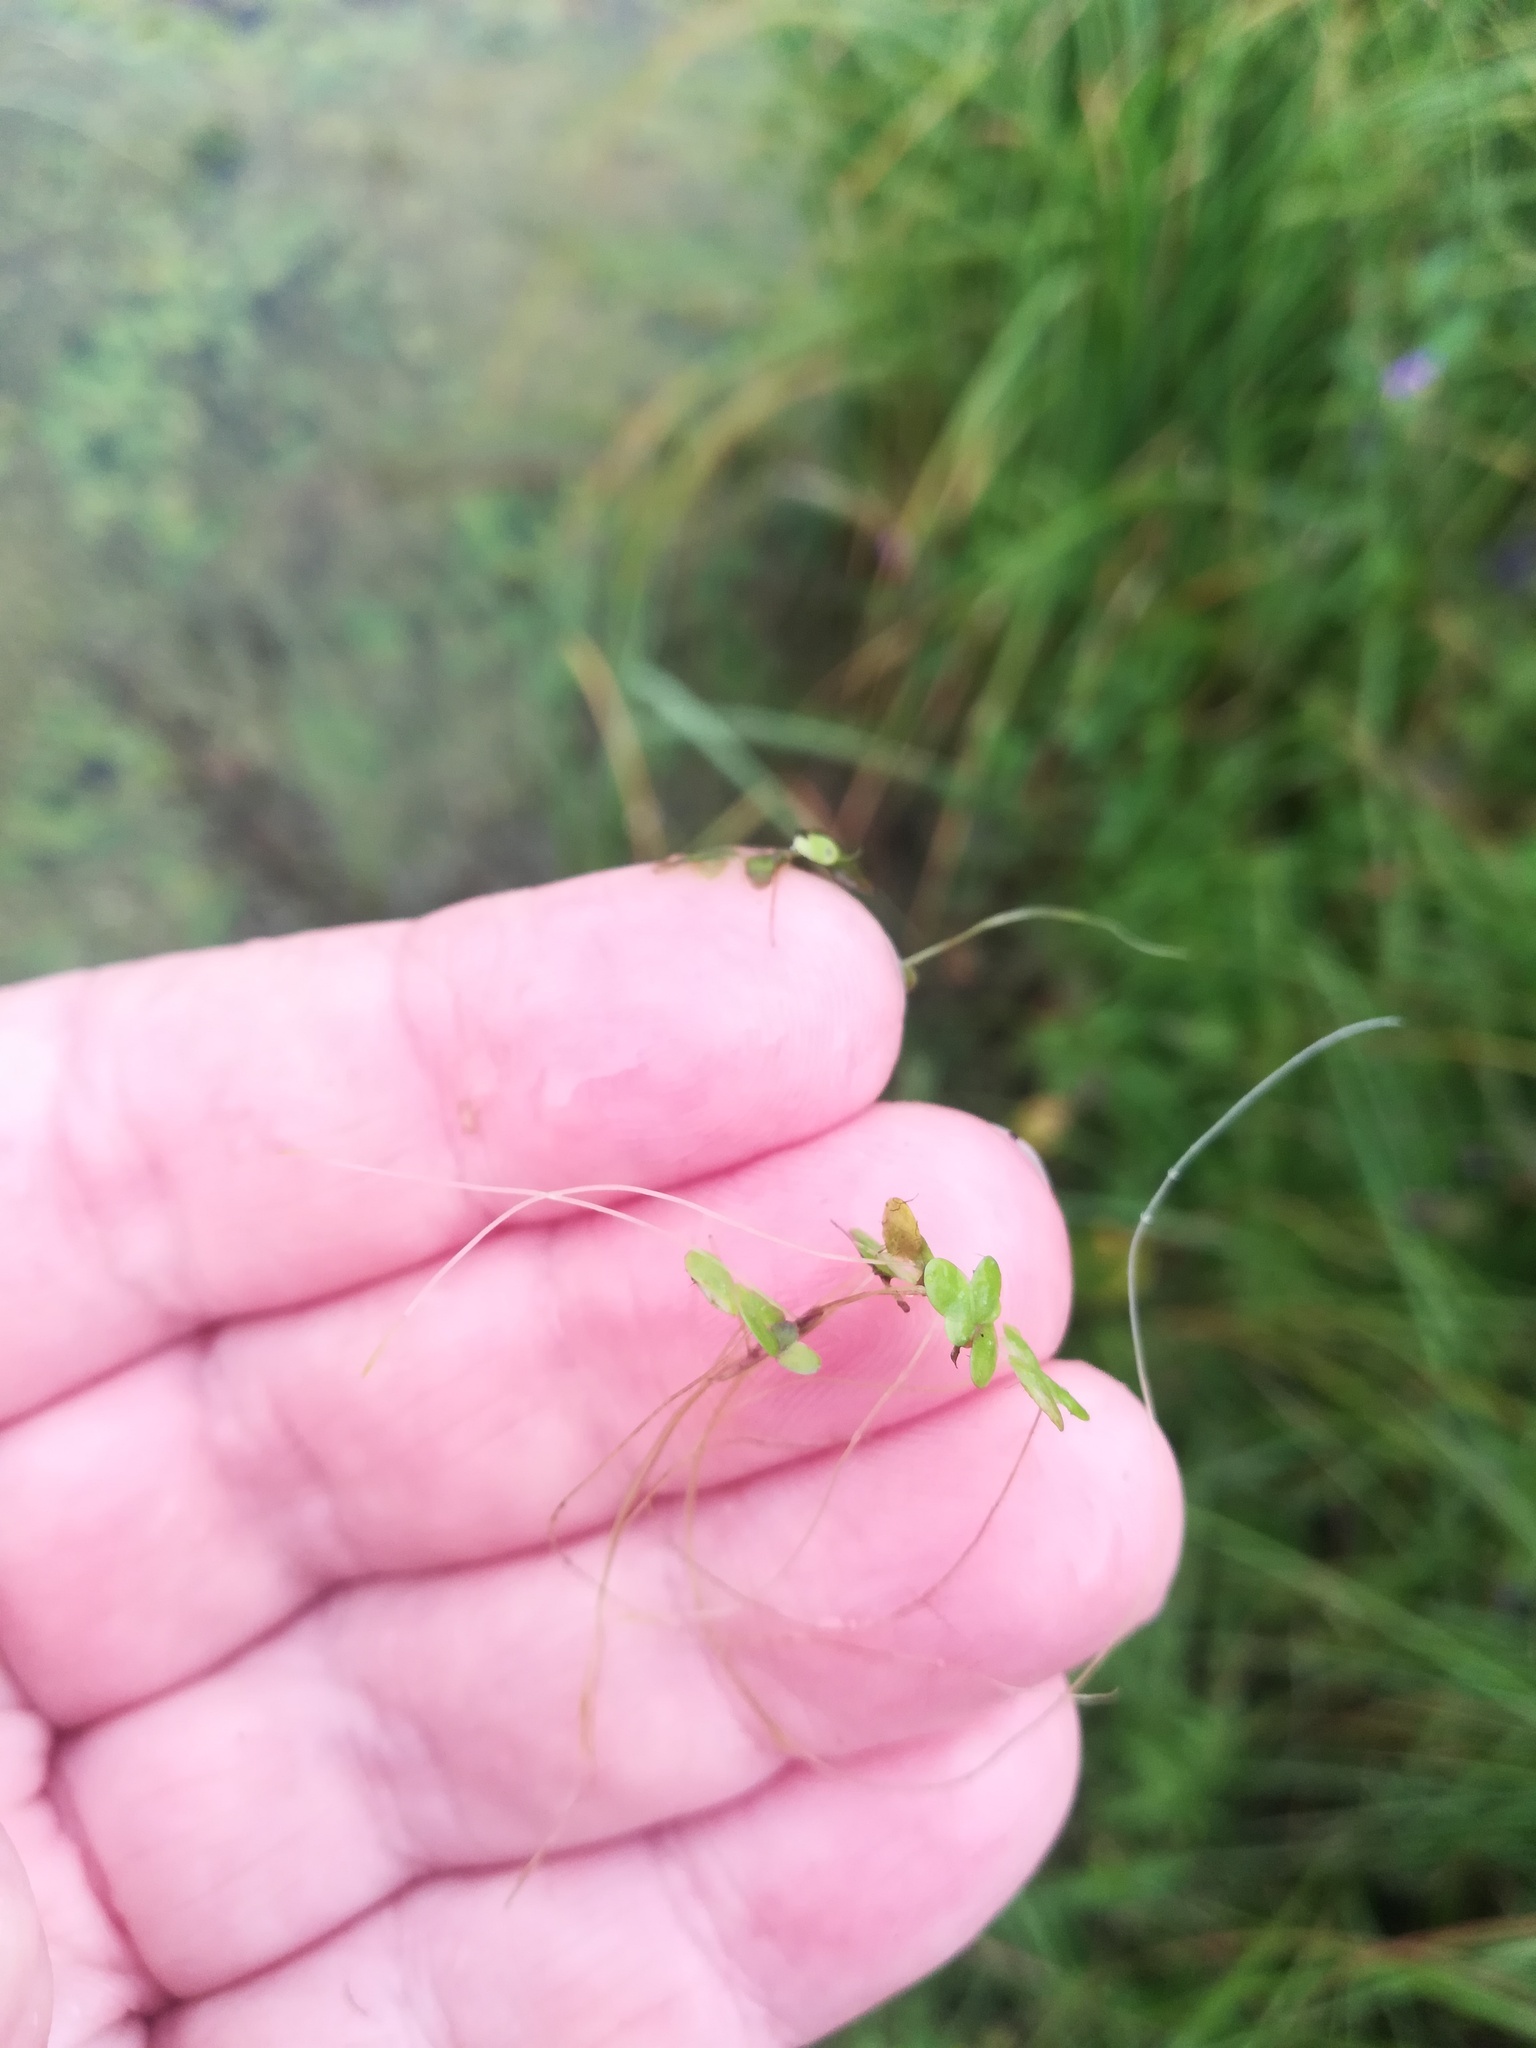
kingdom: Plantae
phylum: Tracheophyta
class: Liliopsida
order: Alismatales
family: Araceae
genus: Lemna
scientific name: Lemna turionifera
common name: Perennial duckweed
